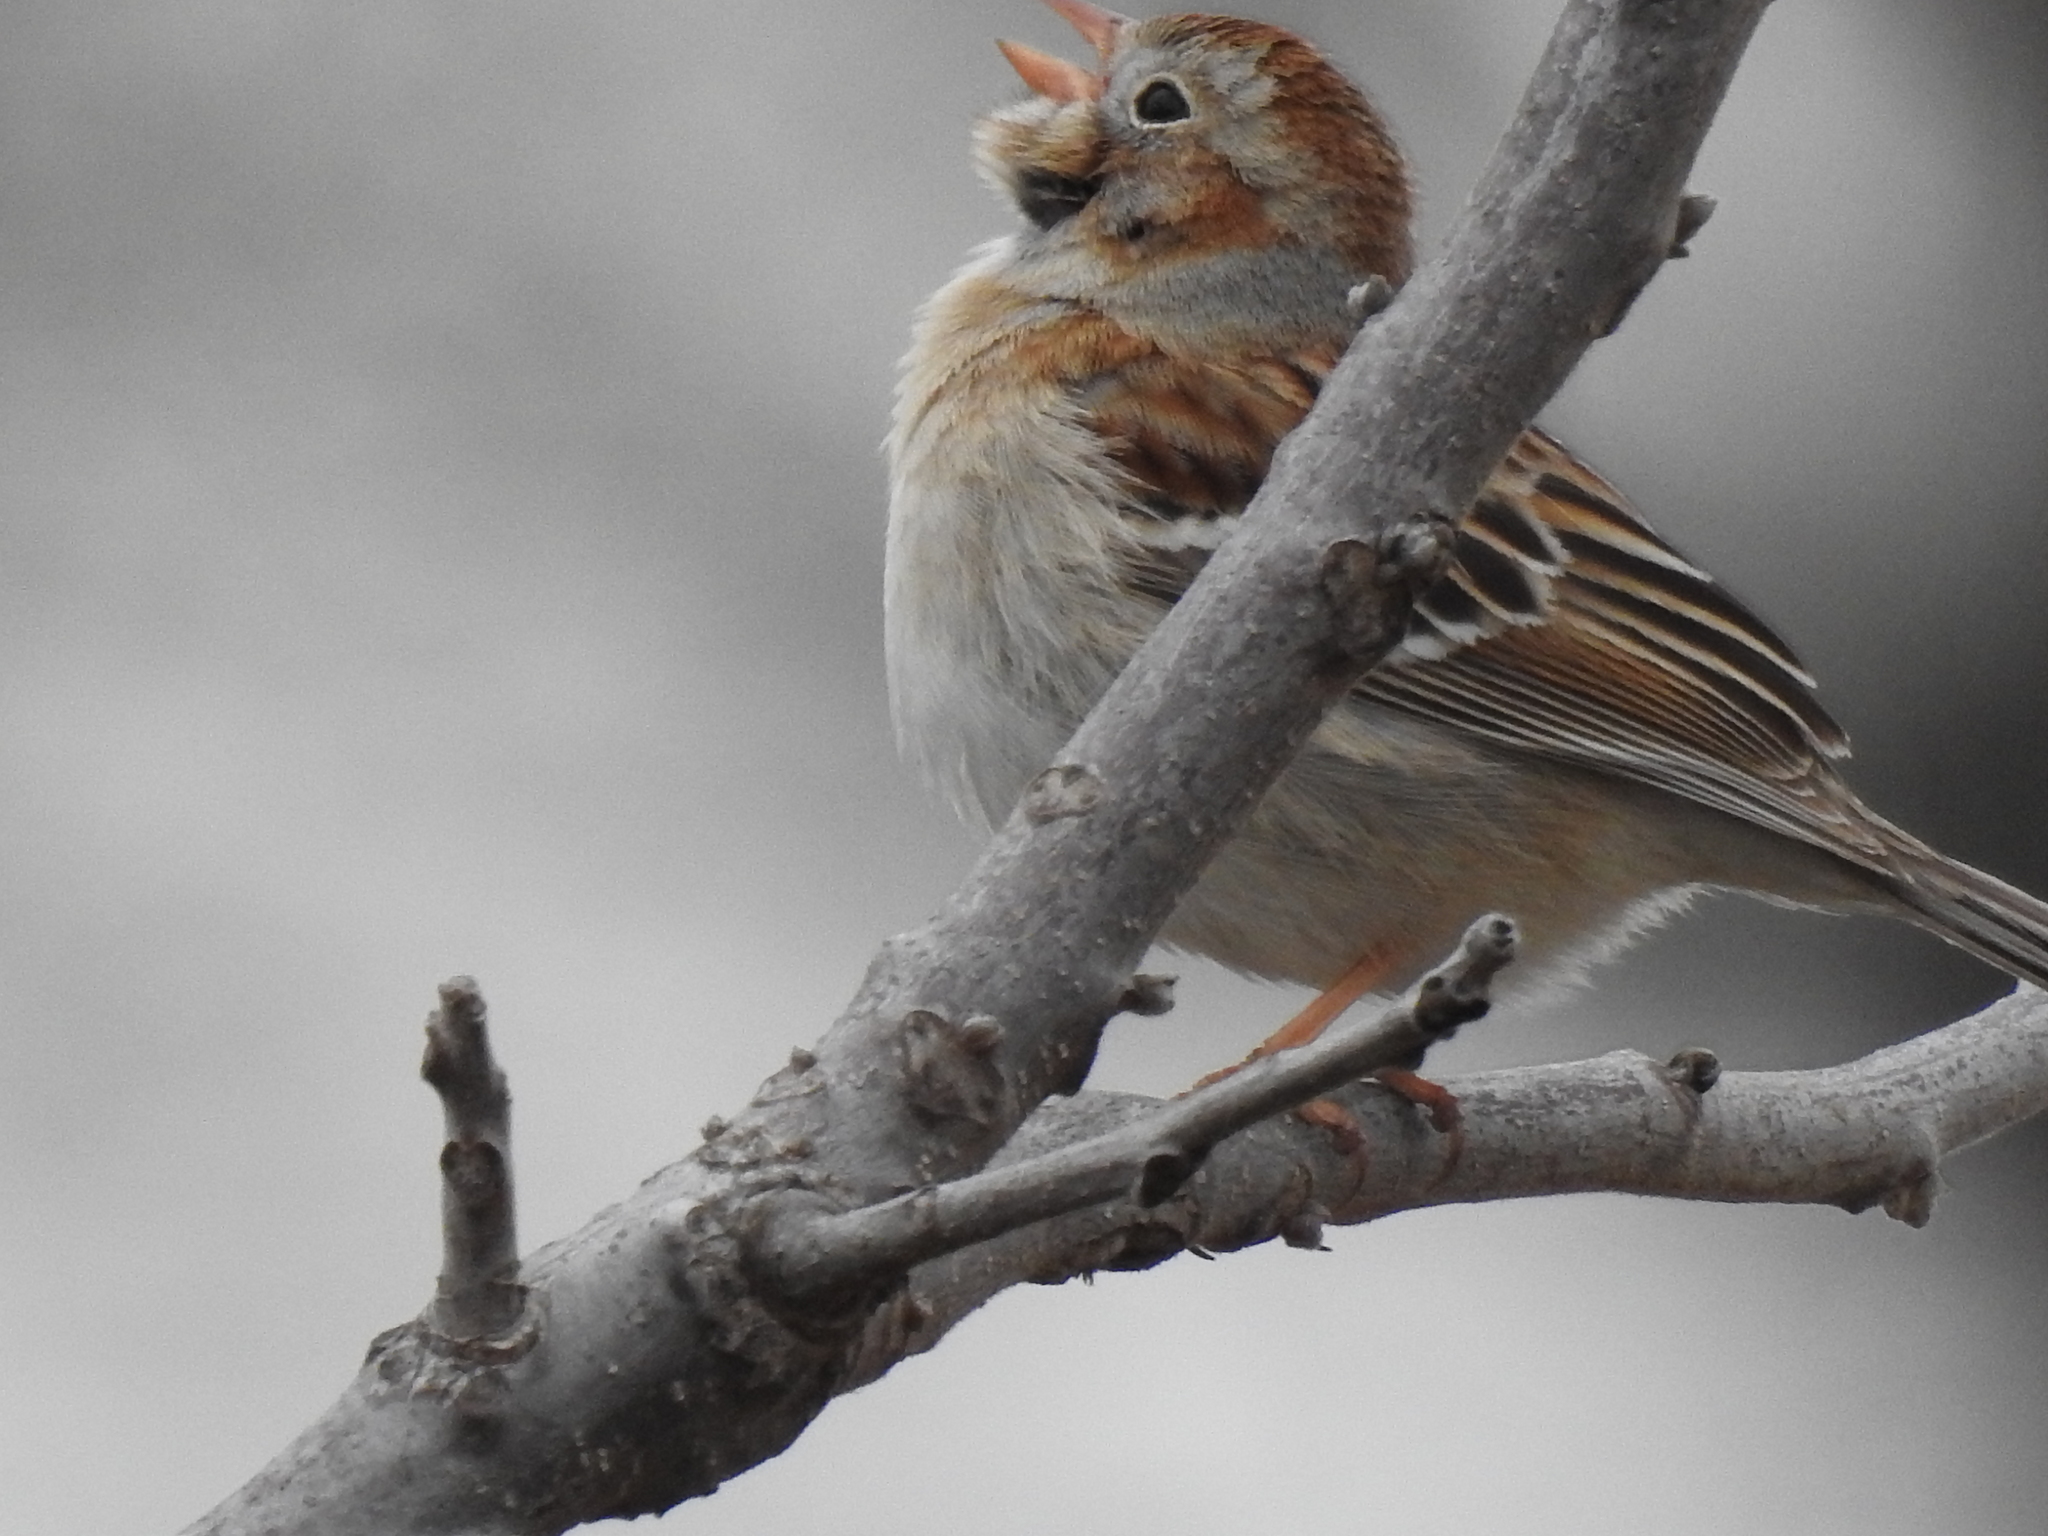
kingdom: Animalia
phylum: Chordata
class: Aves
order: Passeriformes
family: Passerellidae
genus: Spizella
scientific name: Spizella pusilla
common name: Field sparrow
